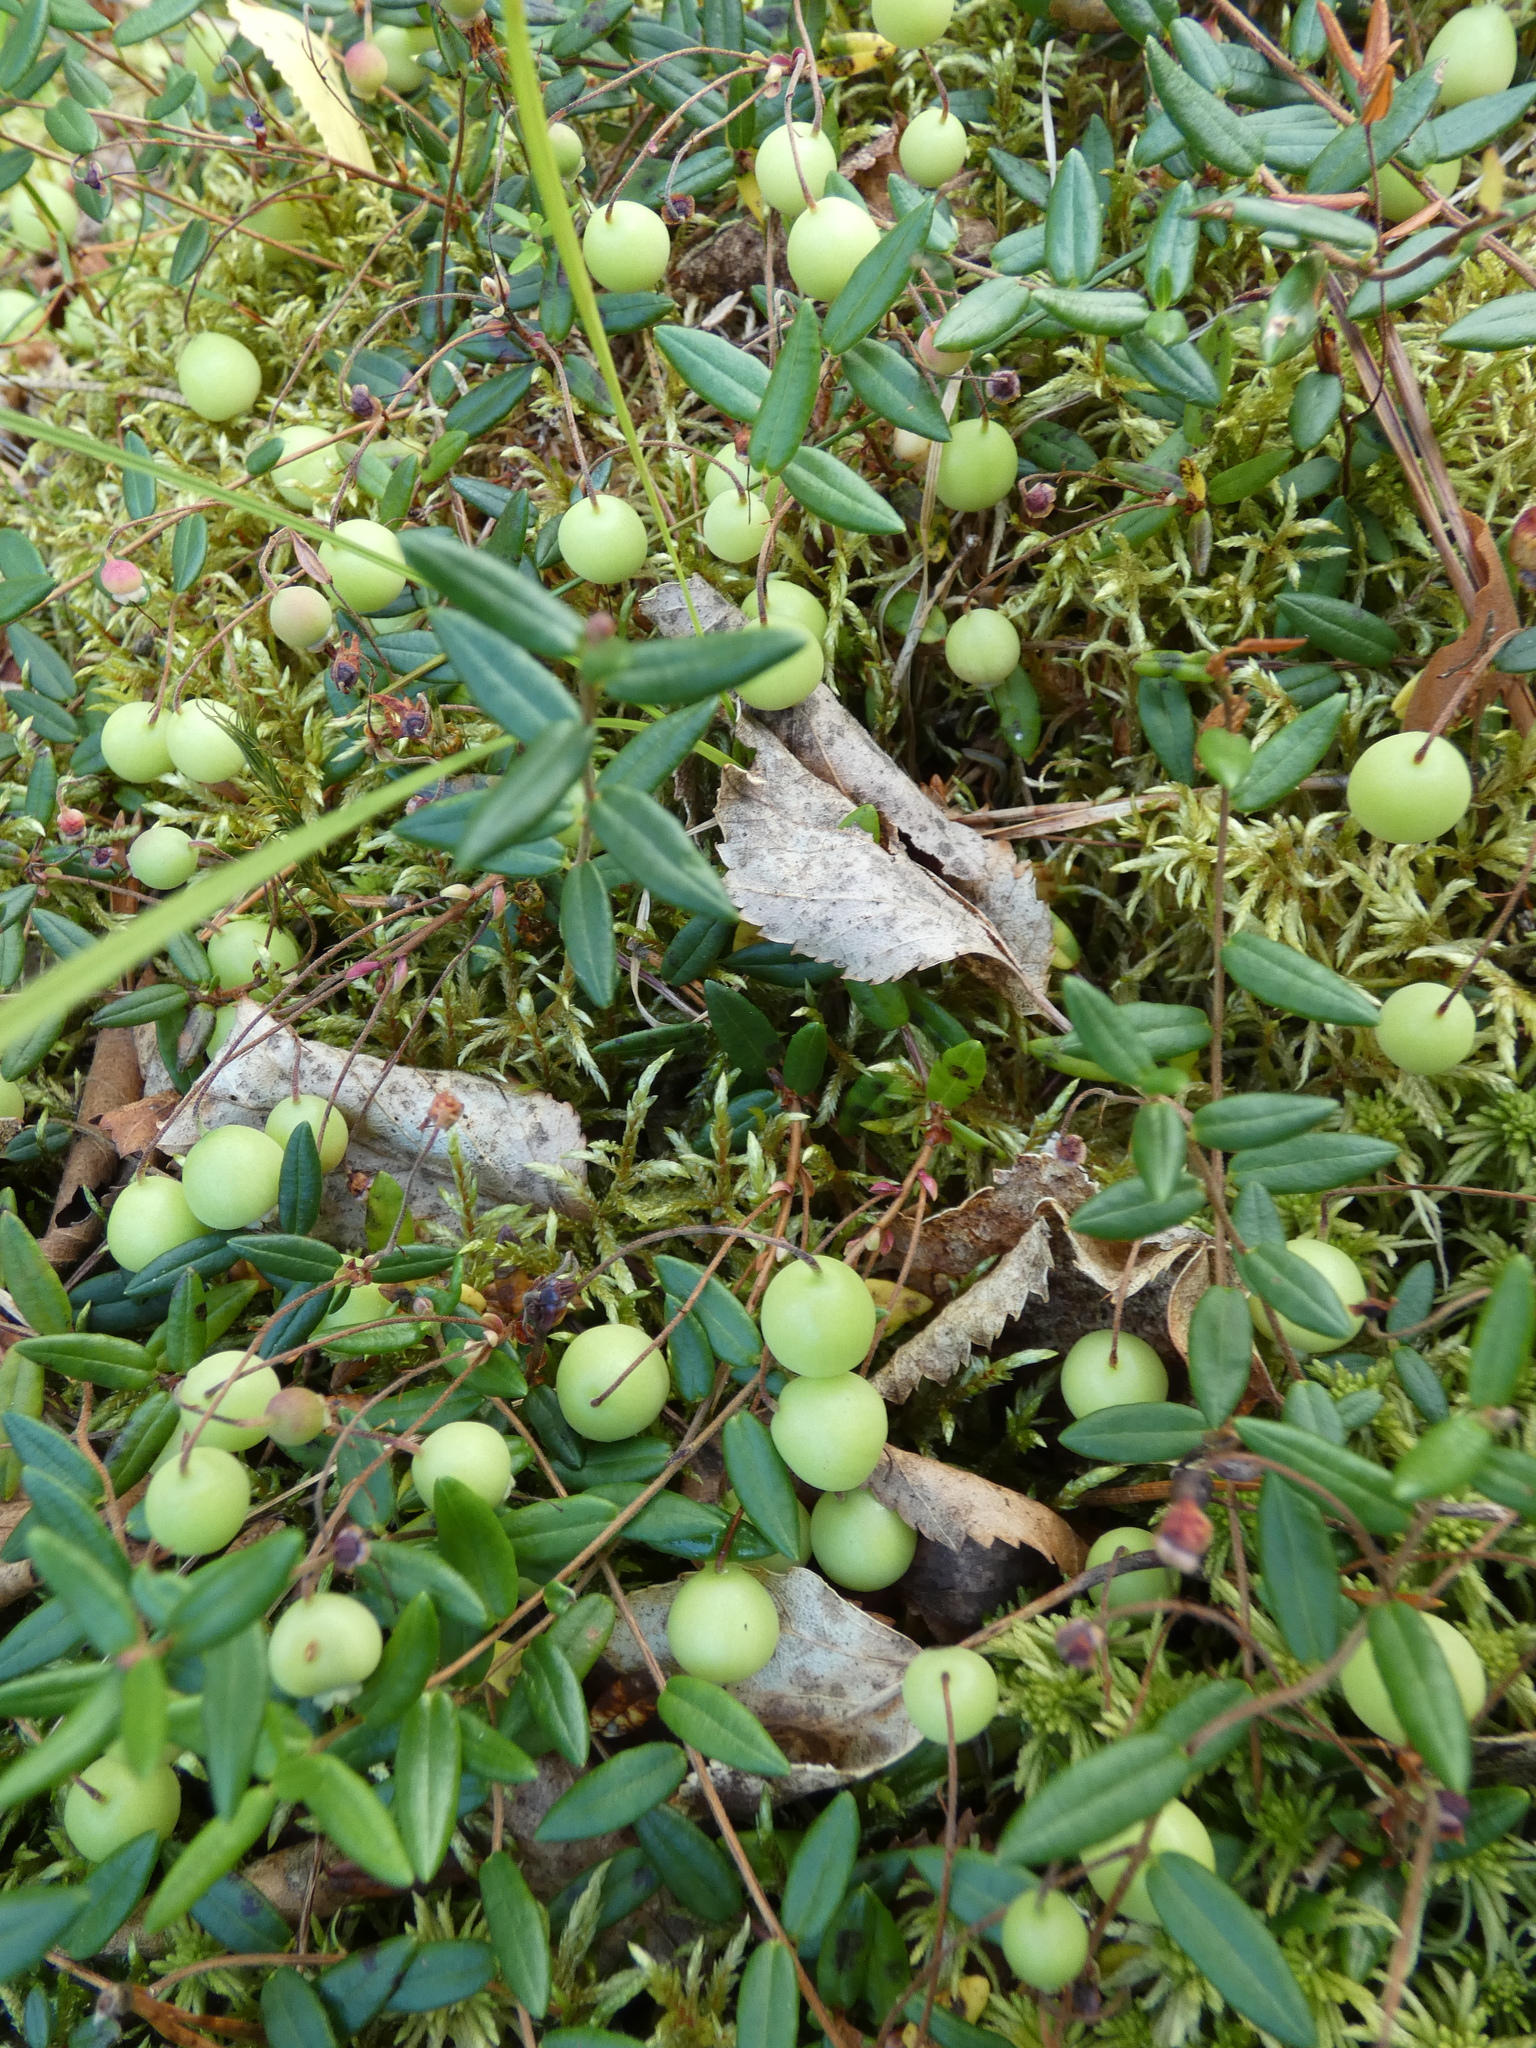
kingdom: Plantae
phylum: Tracheophyta
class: Magnoliopsida
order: Ericales
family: Ericaceae
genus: Vaccinium
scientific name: Vaccinium oxycoccos
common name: Cranberry
